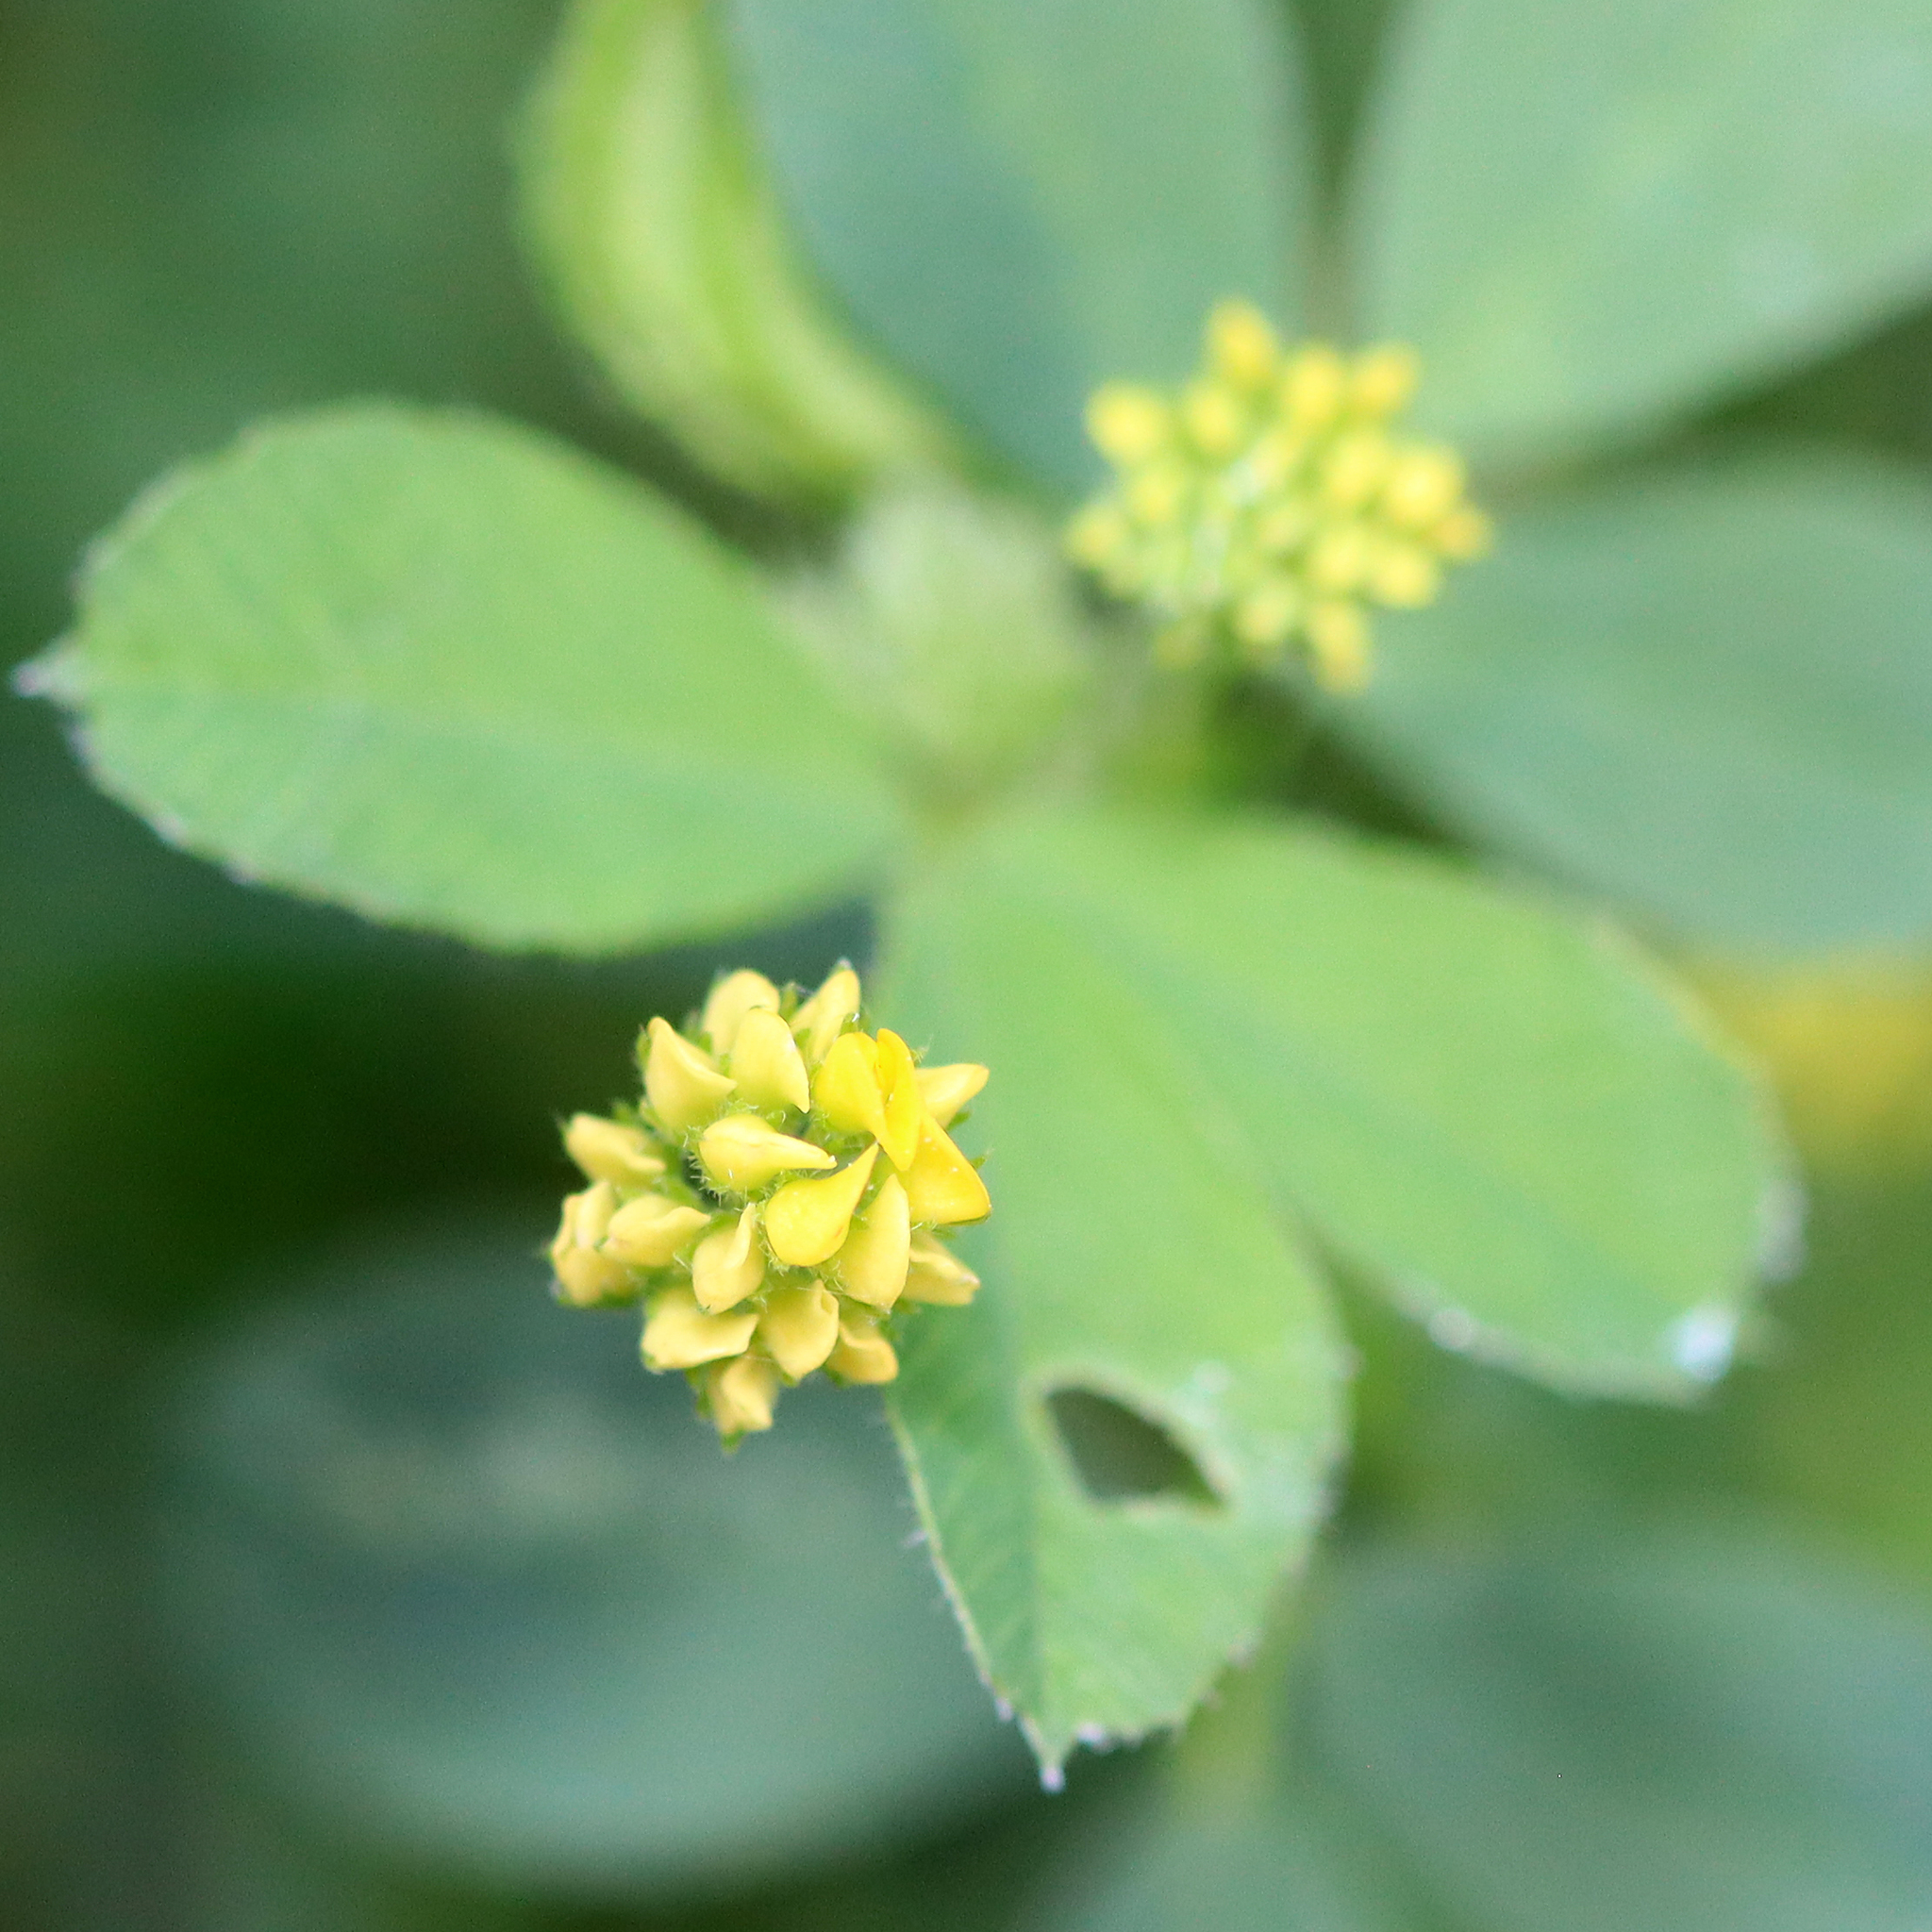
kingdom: Plantae
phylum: Tracheophyta
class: Magnoliopsida
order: Fabales
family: Fabaceae
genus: Medicago
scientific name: Medicago lupulina
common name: Black medick
